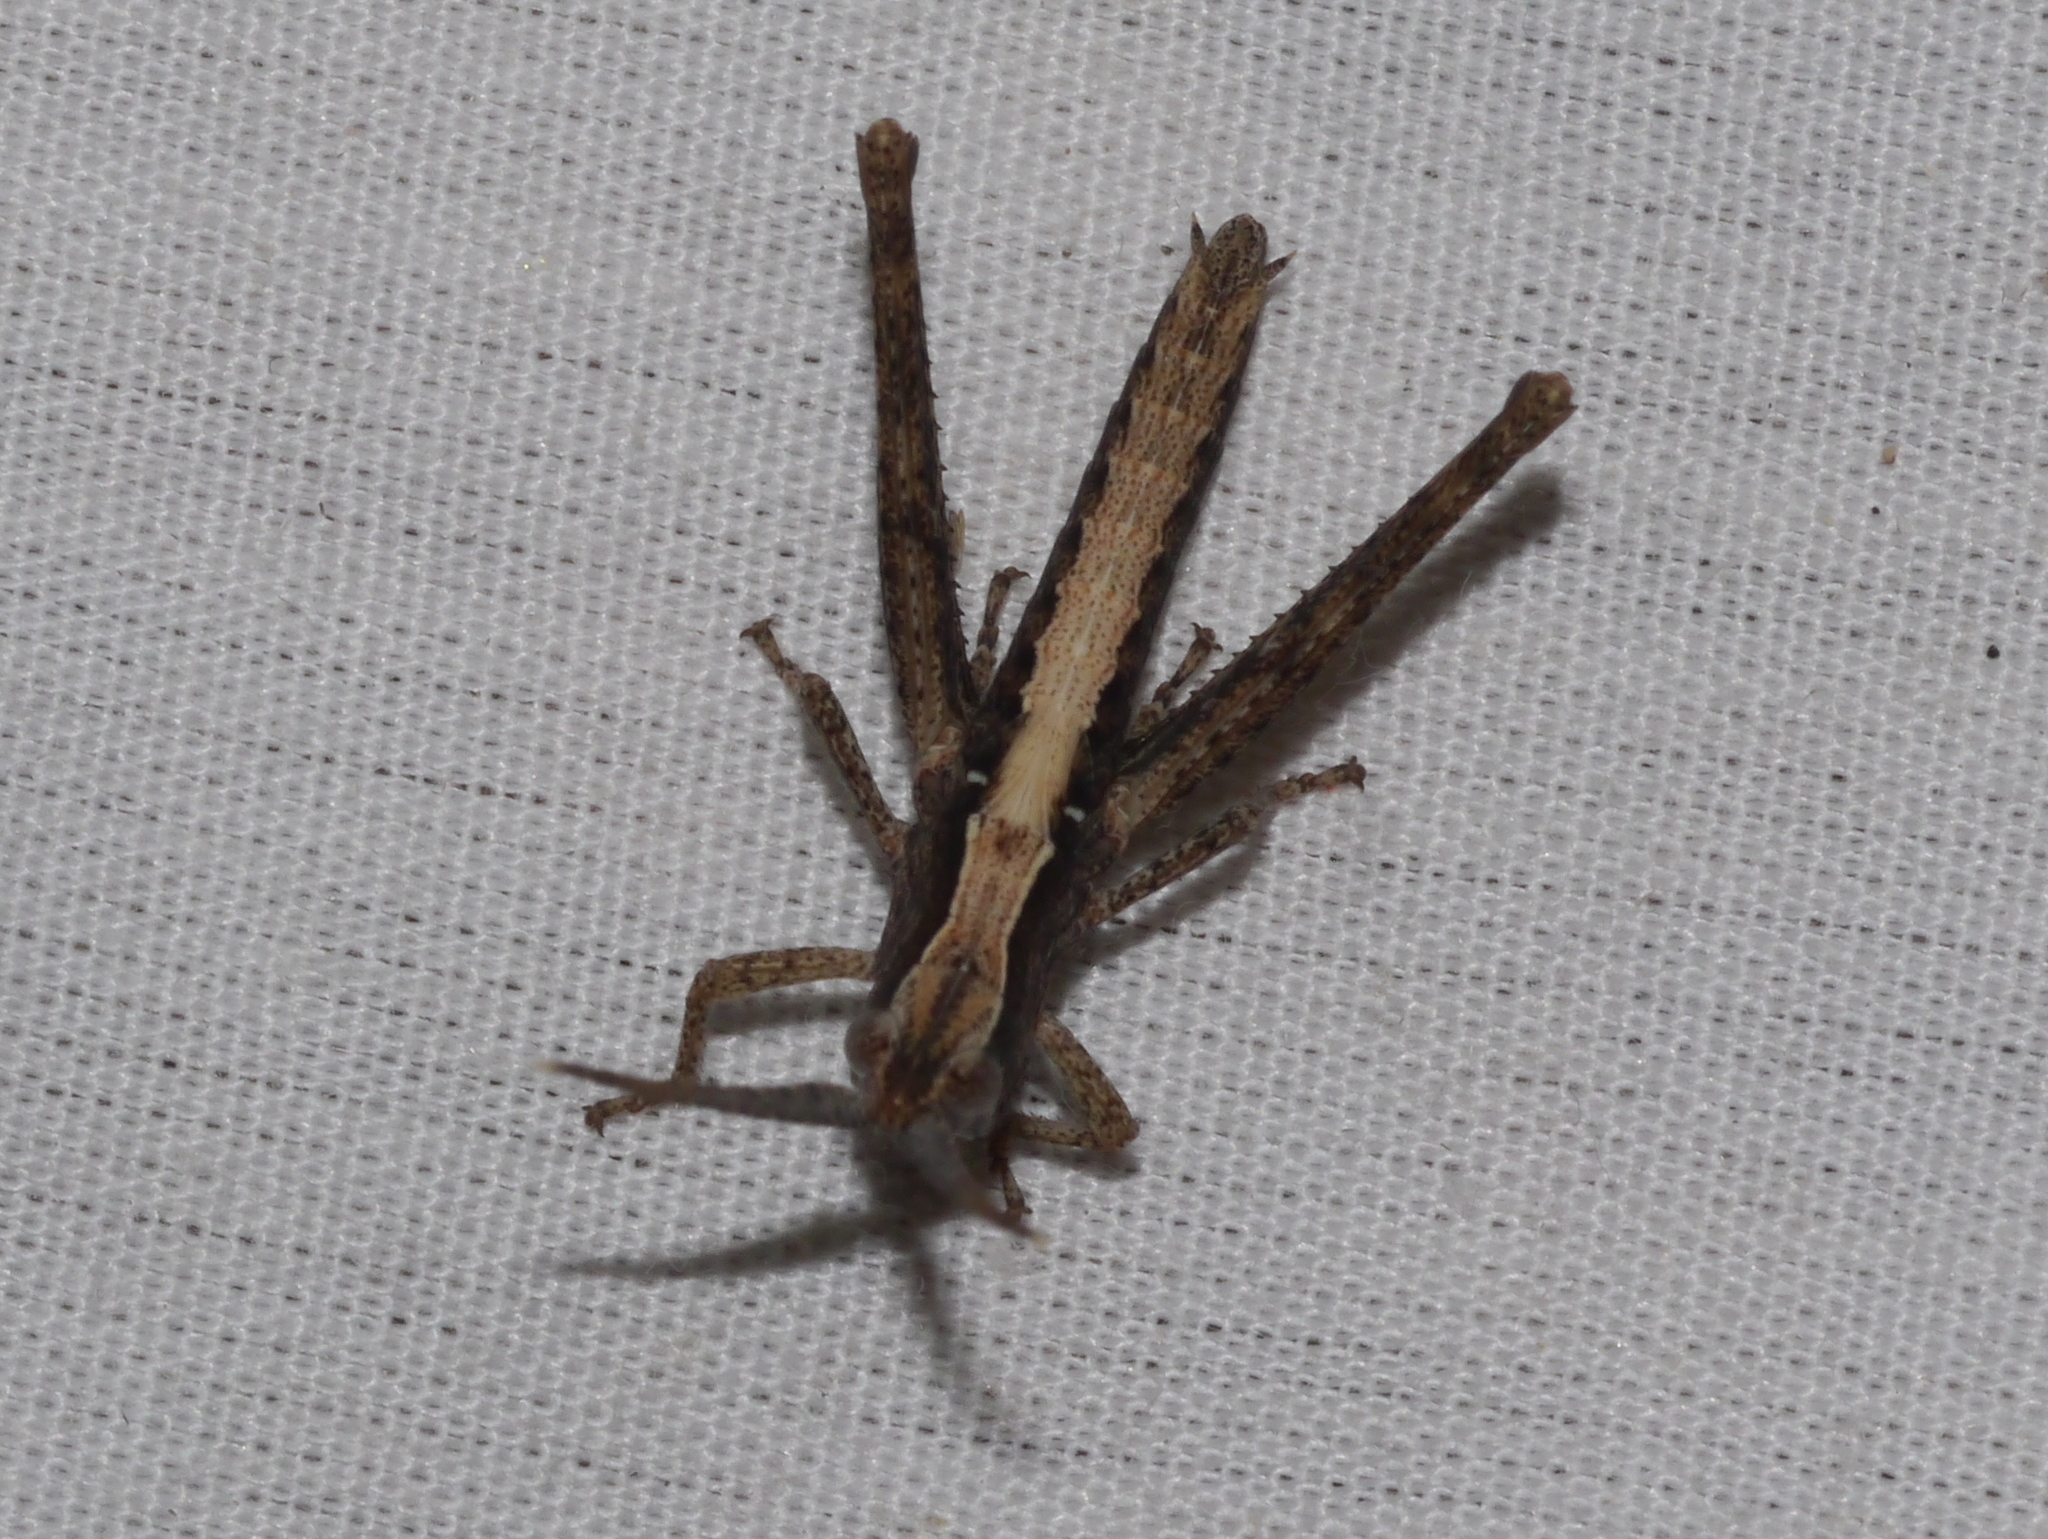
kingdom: Animalia
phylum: Arthropoda
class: Insecta
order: Orthoptera
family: Acrididae
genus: Acantherus
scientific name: Acantherus piperatus
